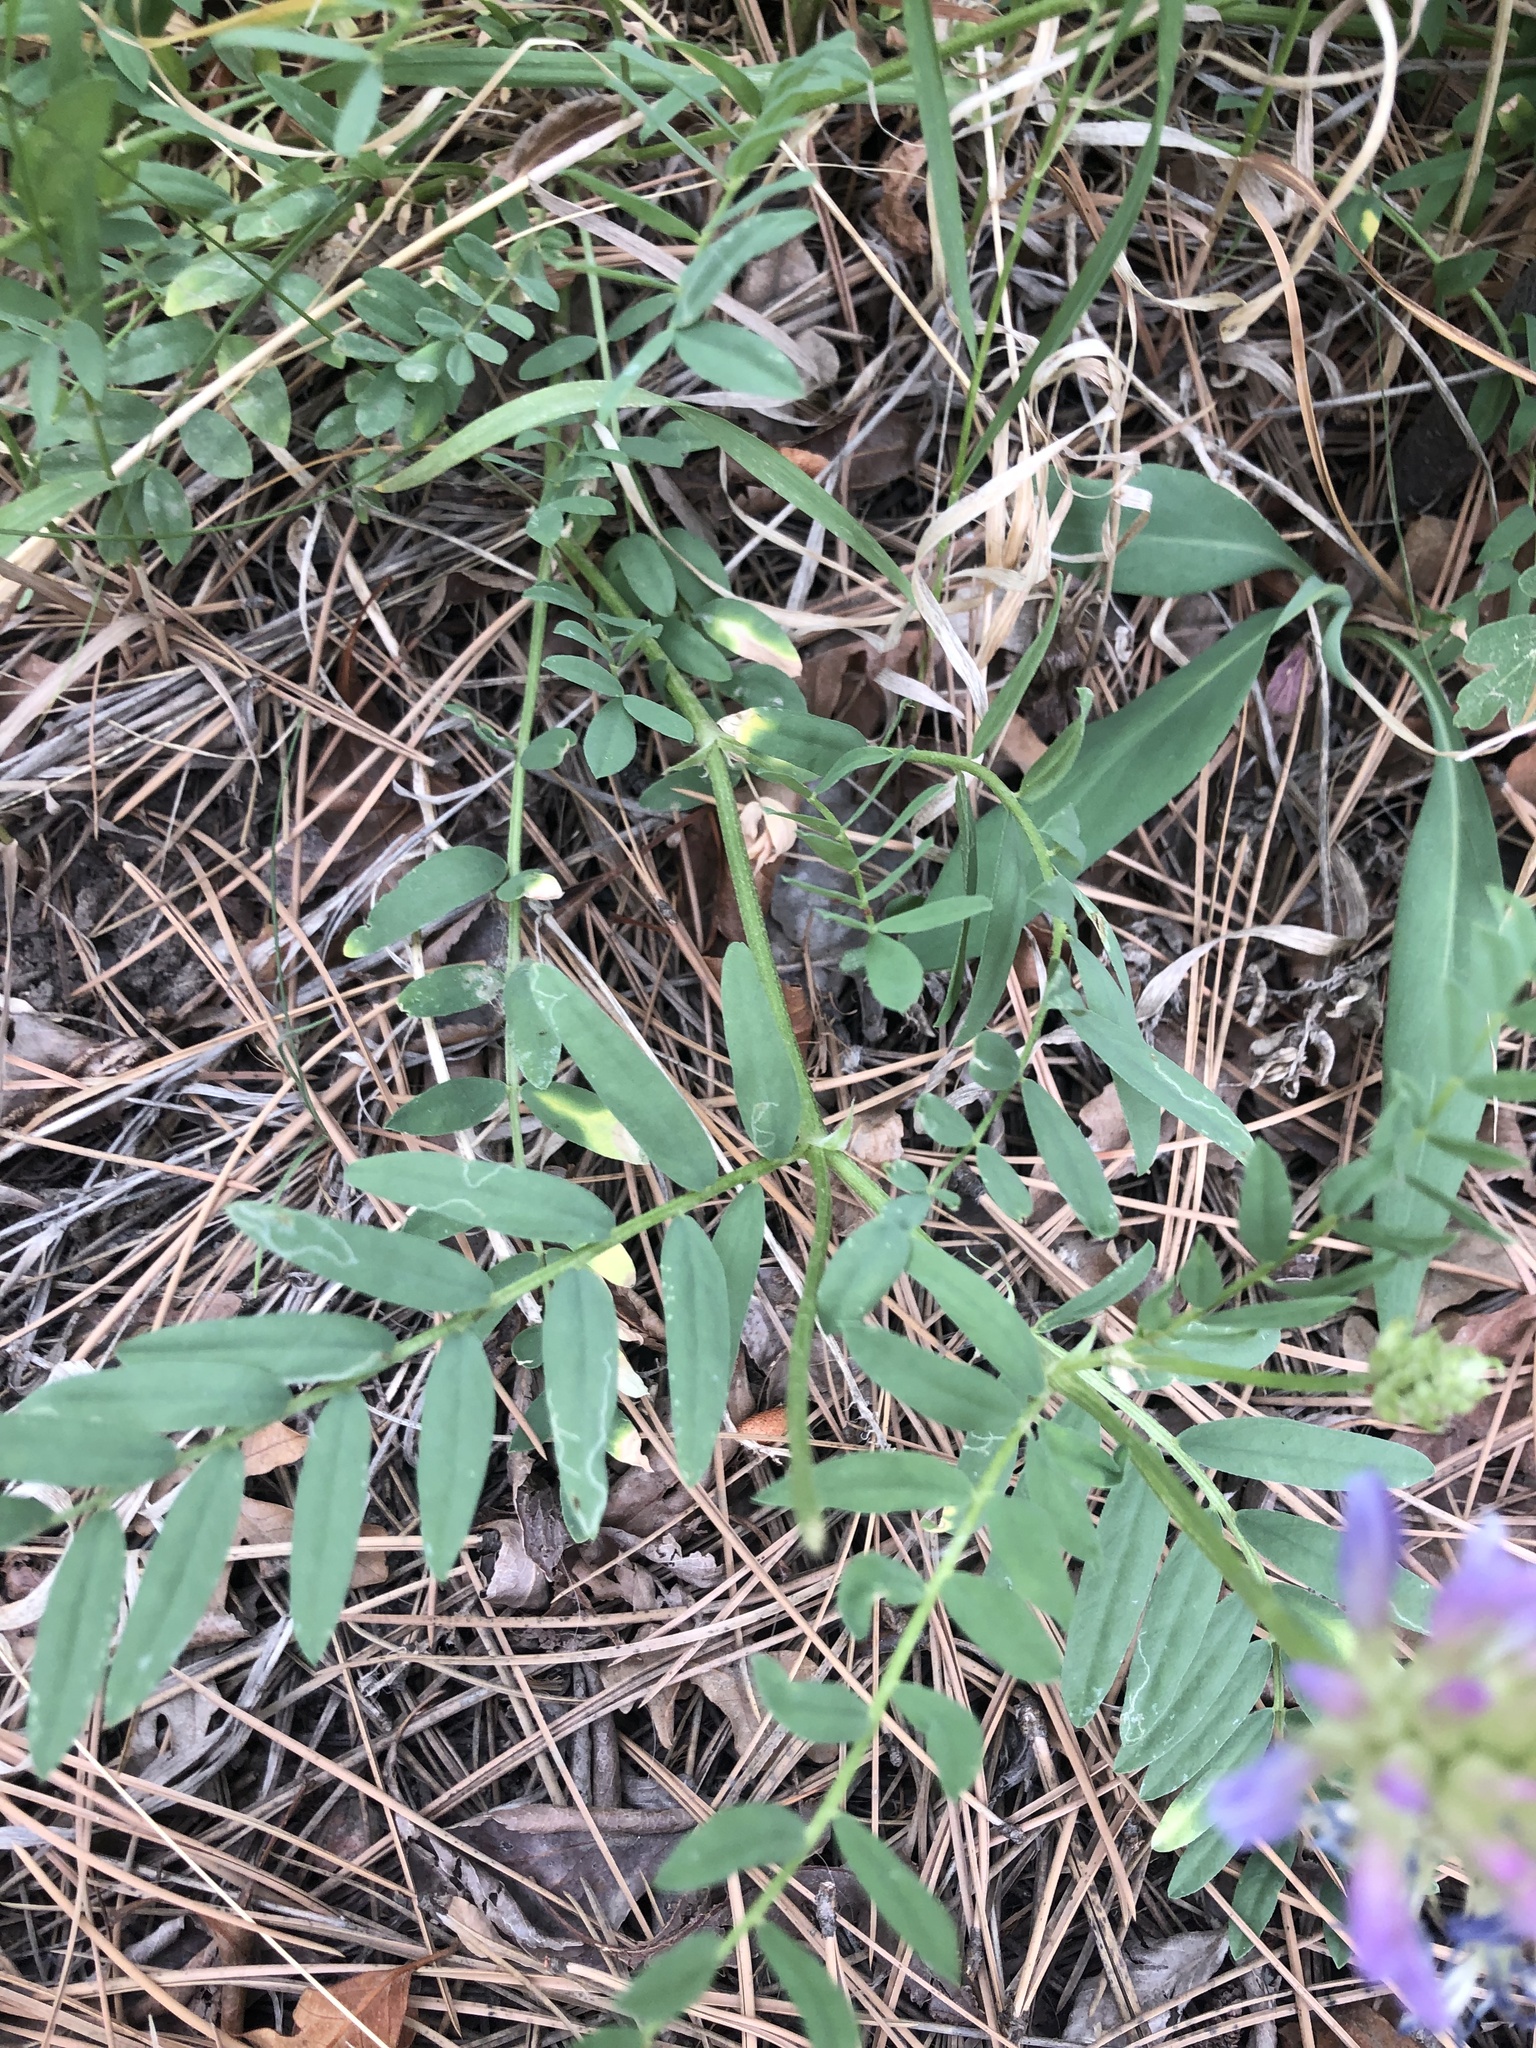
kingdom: Plantae
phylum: Tracheophyta
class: Magnoliopsida
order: Fabales
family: Fabaceae
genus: Astragalus
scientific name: Astragalus laxmannii
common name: Laxmann's milk-vetch
